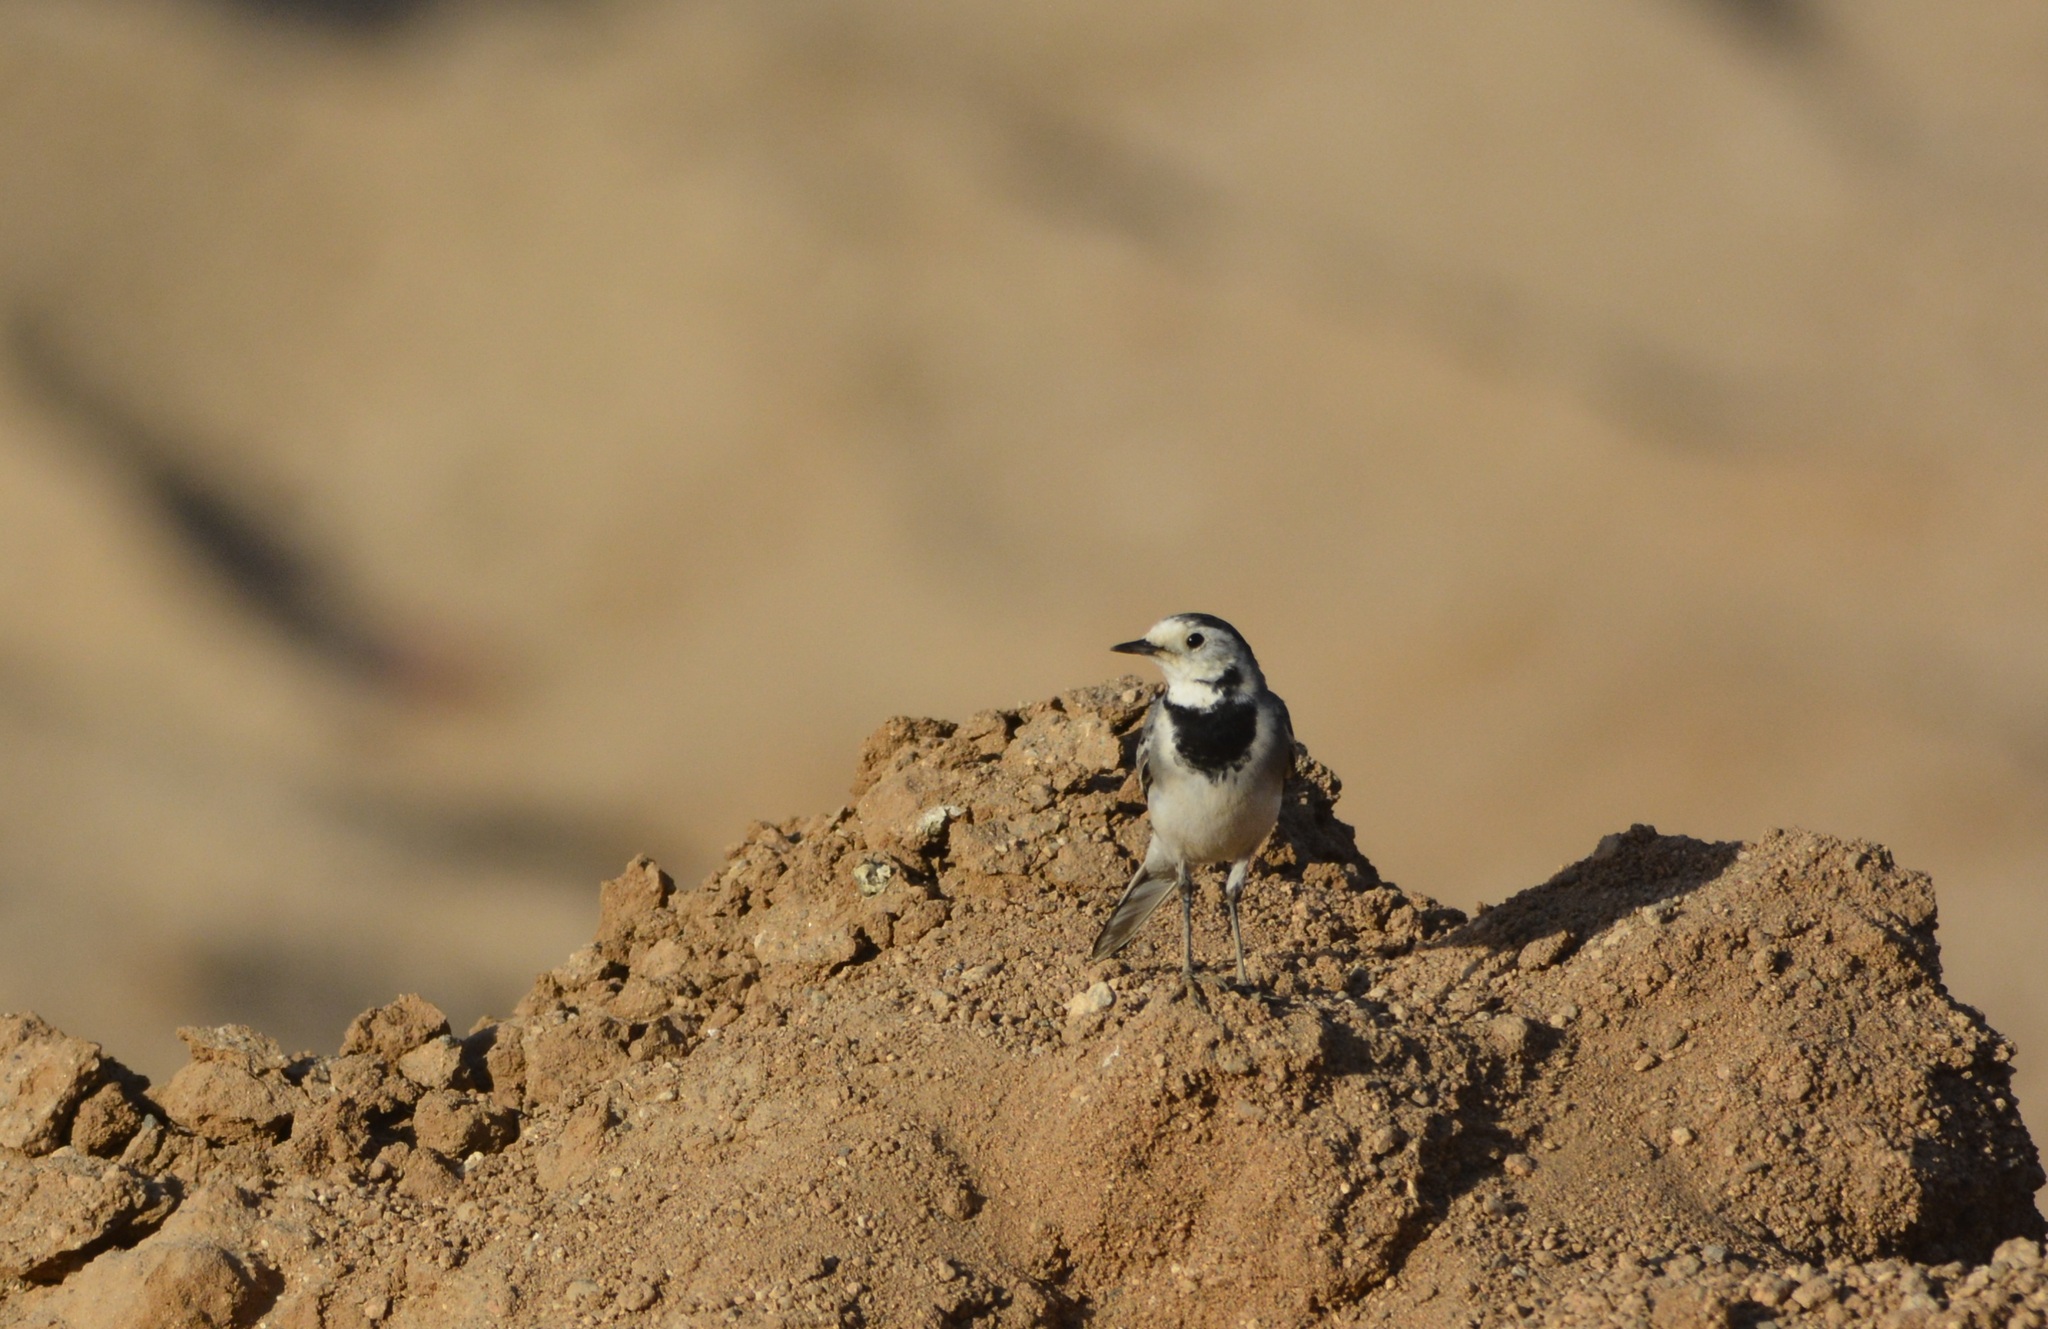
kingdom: Animalia
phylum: Chordata
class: Aves
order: Passeriformes
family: Motacillidae
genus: Motacilla
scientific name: Motacilla alba
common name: White wagtail
